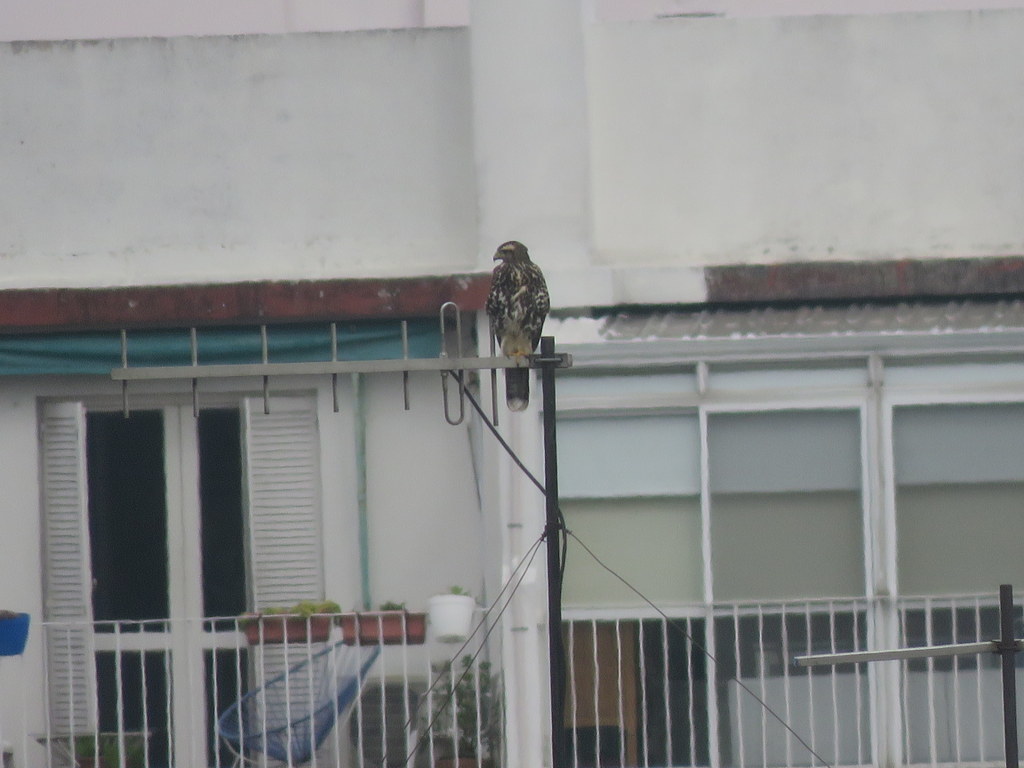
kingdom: Animalia
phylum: Chordata
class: Aves
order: Accipitriformes
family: Accipitridae
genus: Parabuteo
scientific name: Parabuteo unicinctus
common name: Harris's hawk
